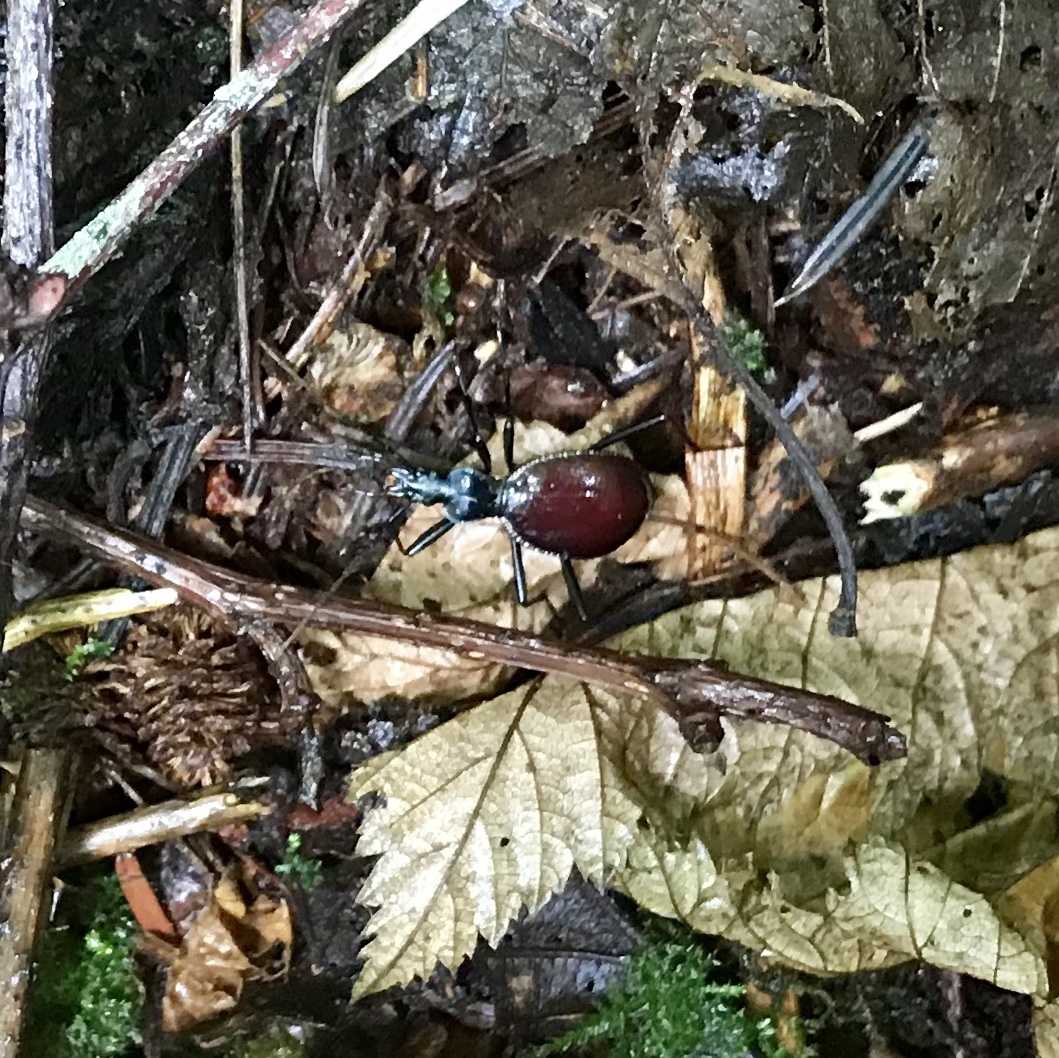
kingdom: Animalia
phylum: Arthropoda
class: Insecta
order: Coleoptera
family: Carabidae
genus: Scaphinotus
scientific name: Scaphinotus angusticollis
